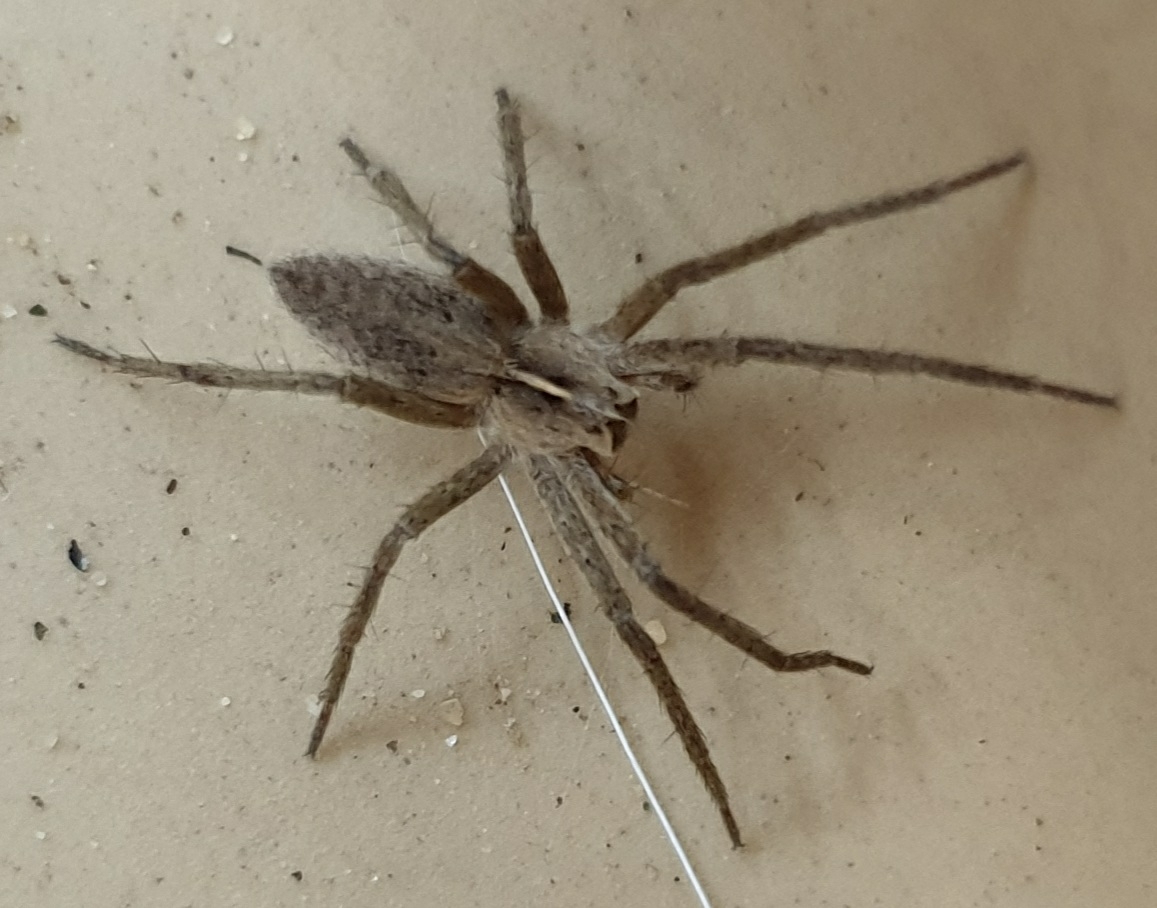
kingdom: Animalia
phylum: Arthropoda
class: Arachnida
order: Araneae
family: Pisauridae
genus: Pisaura
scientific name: Pisaura mirabilis
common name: Tent spider
